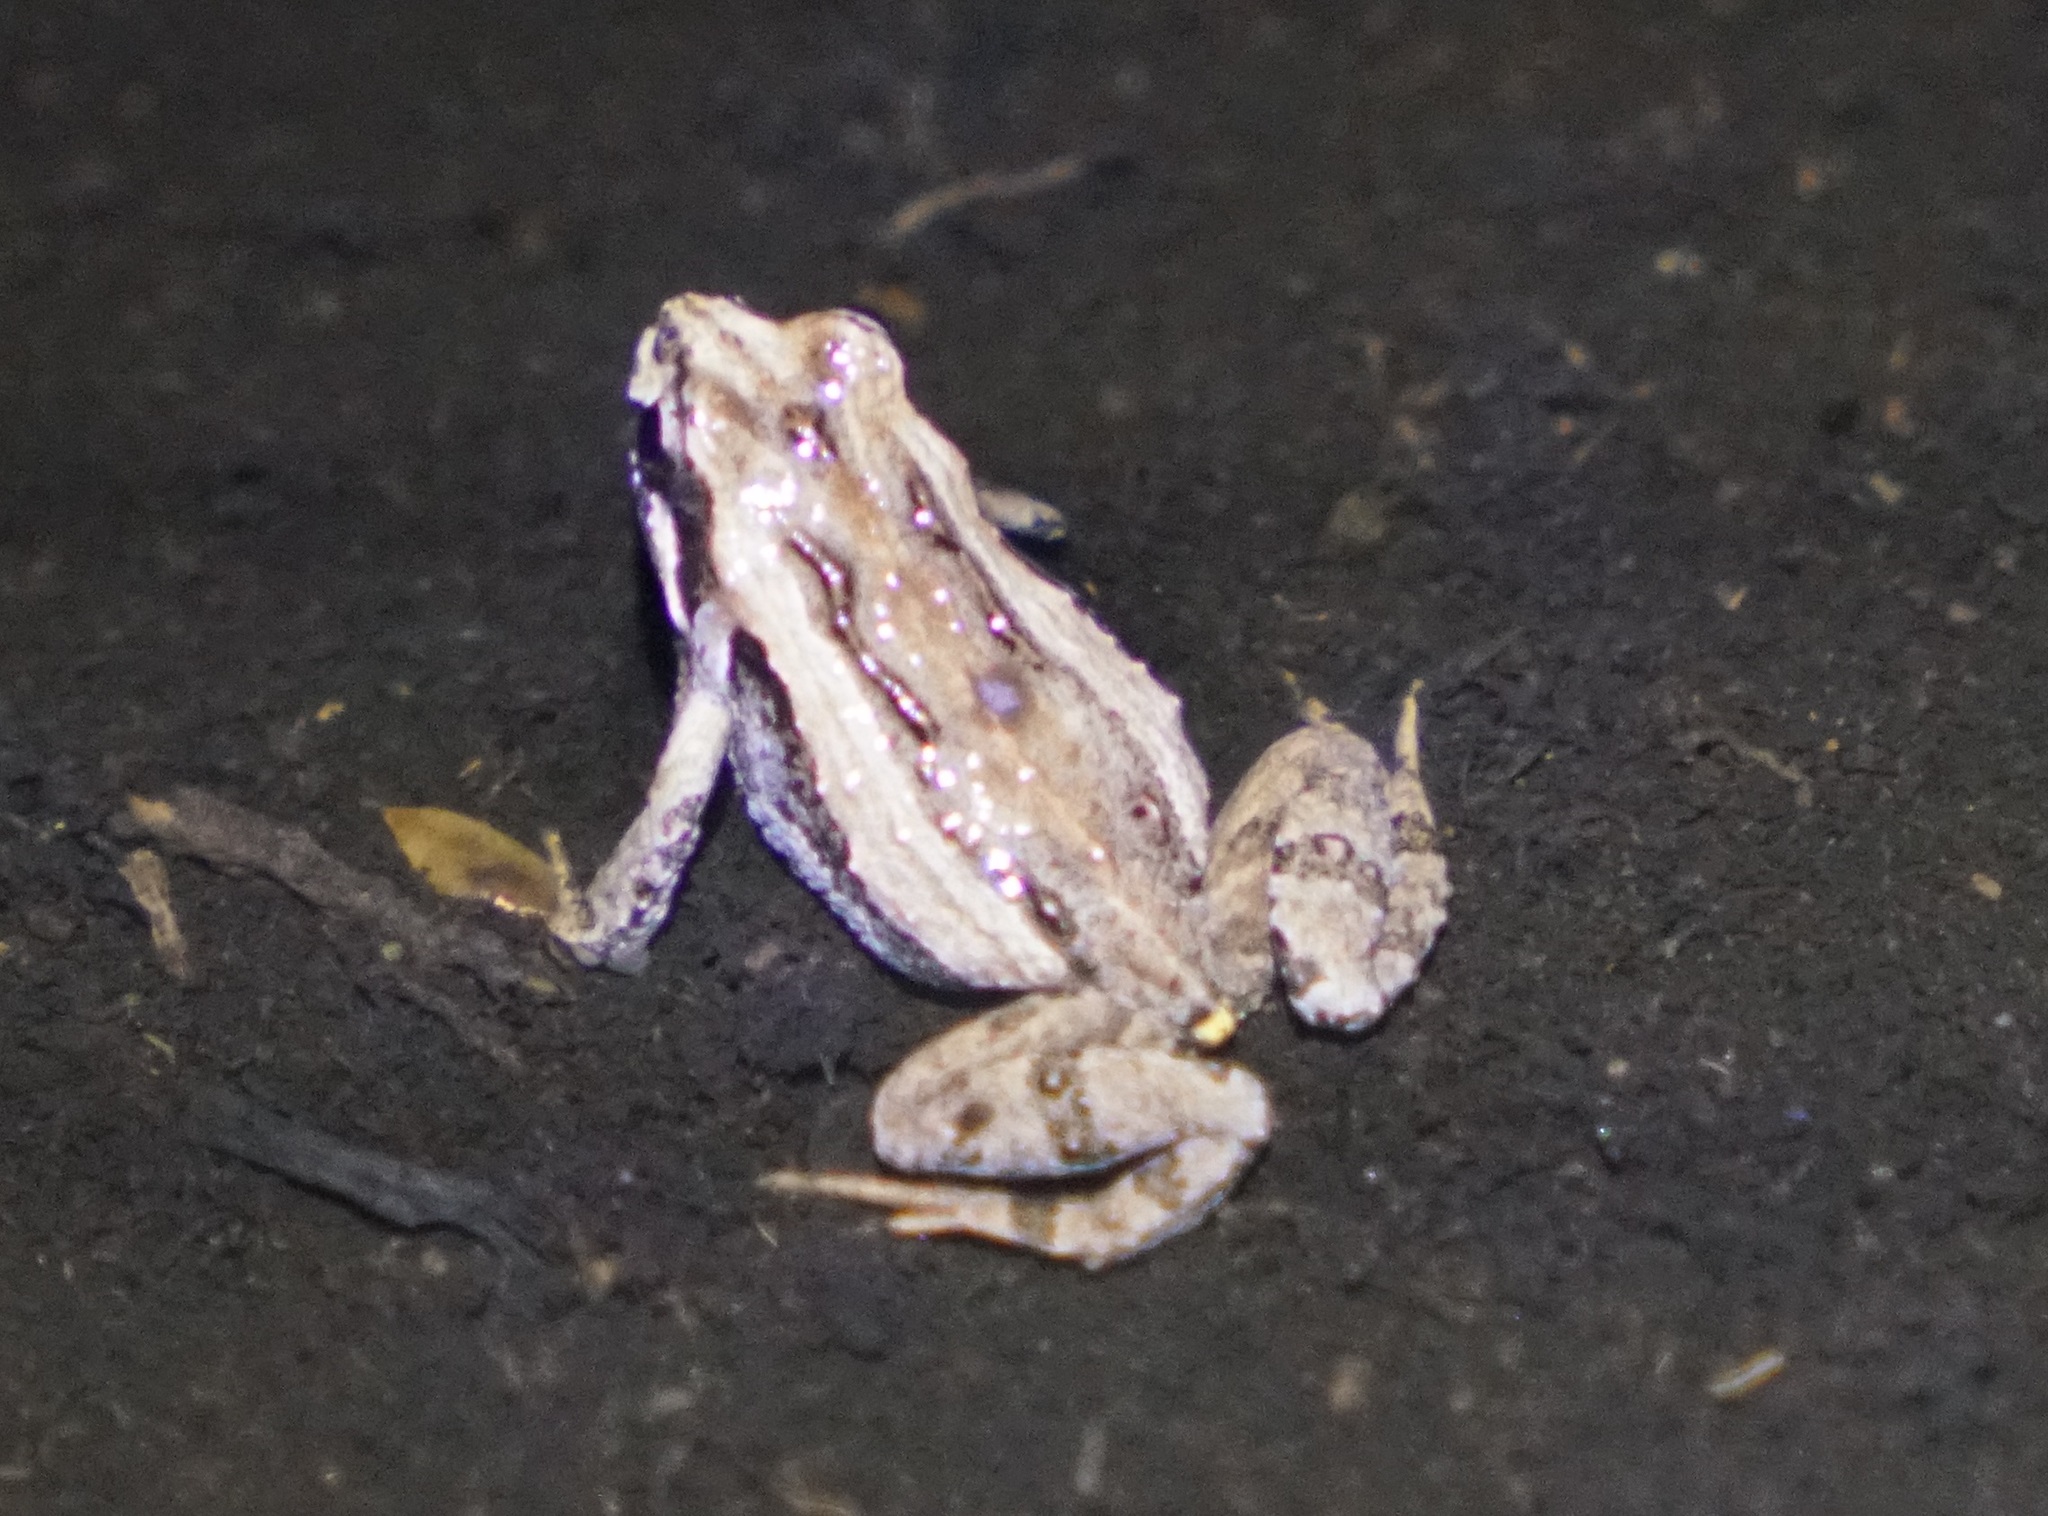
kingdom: Animalia
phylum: Chordata
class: Amphibia
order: Anura
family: Myobatrachidae
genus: Crinia
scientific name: Crinia signifera
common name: Brown froglet
